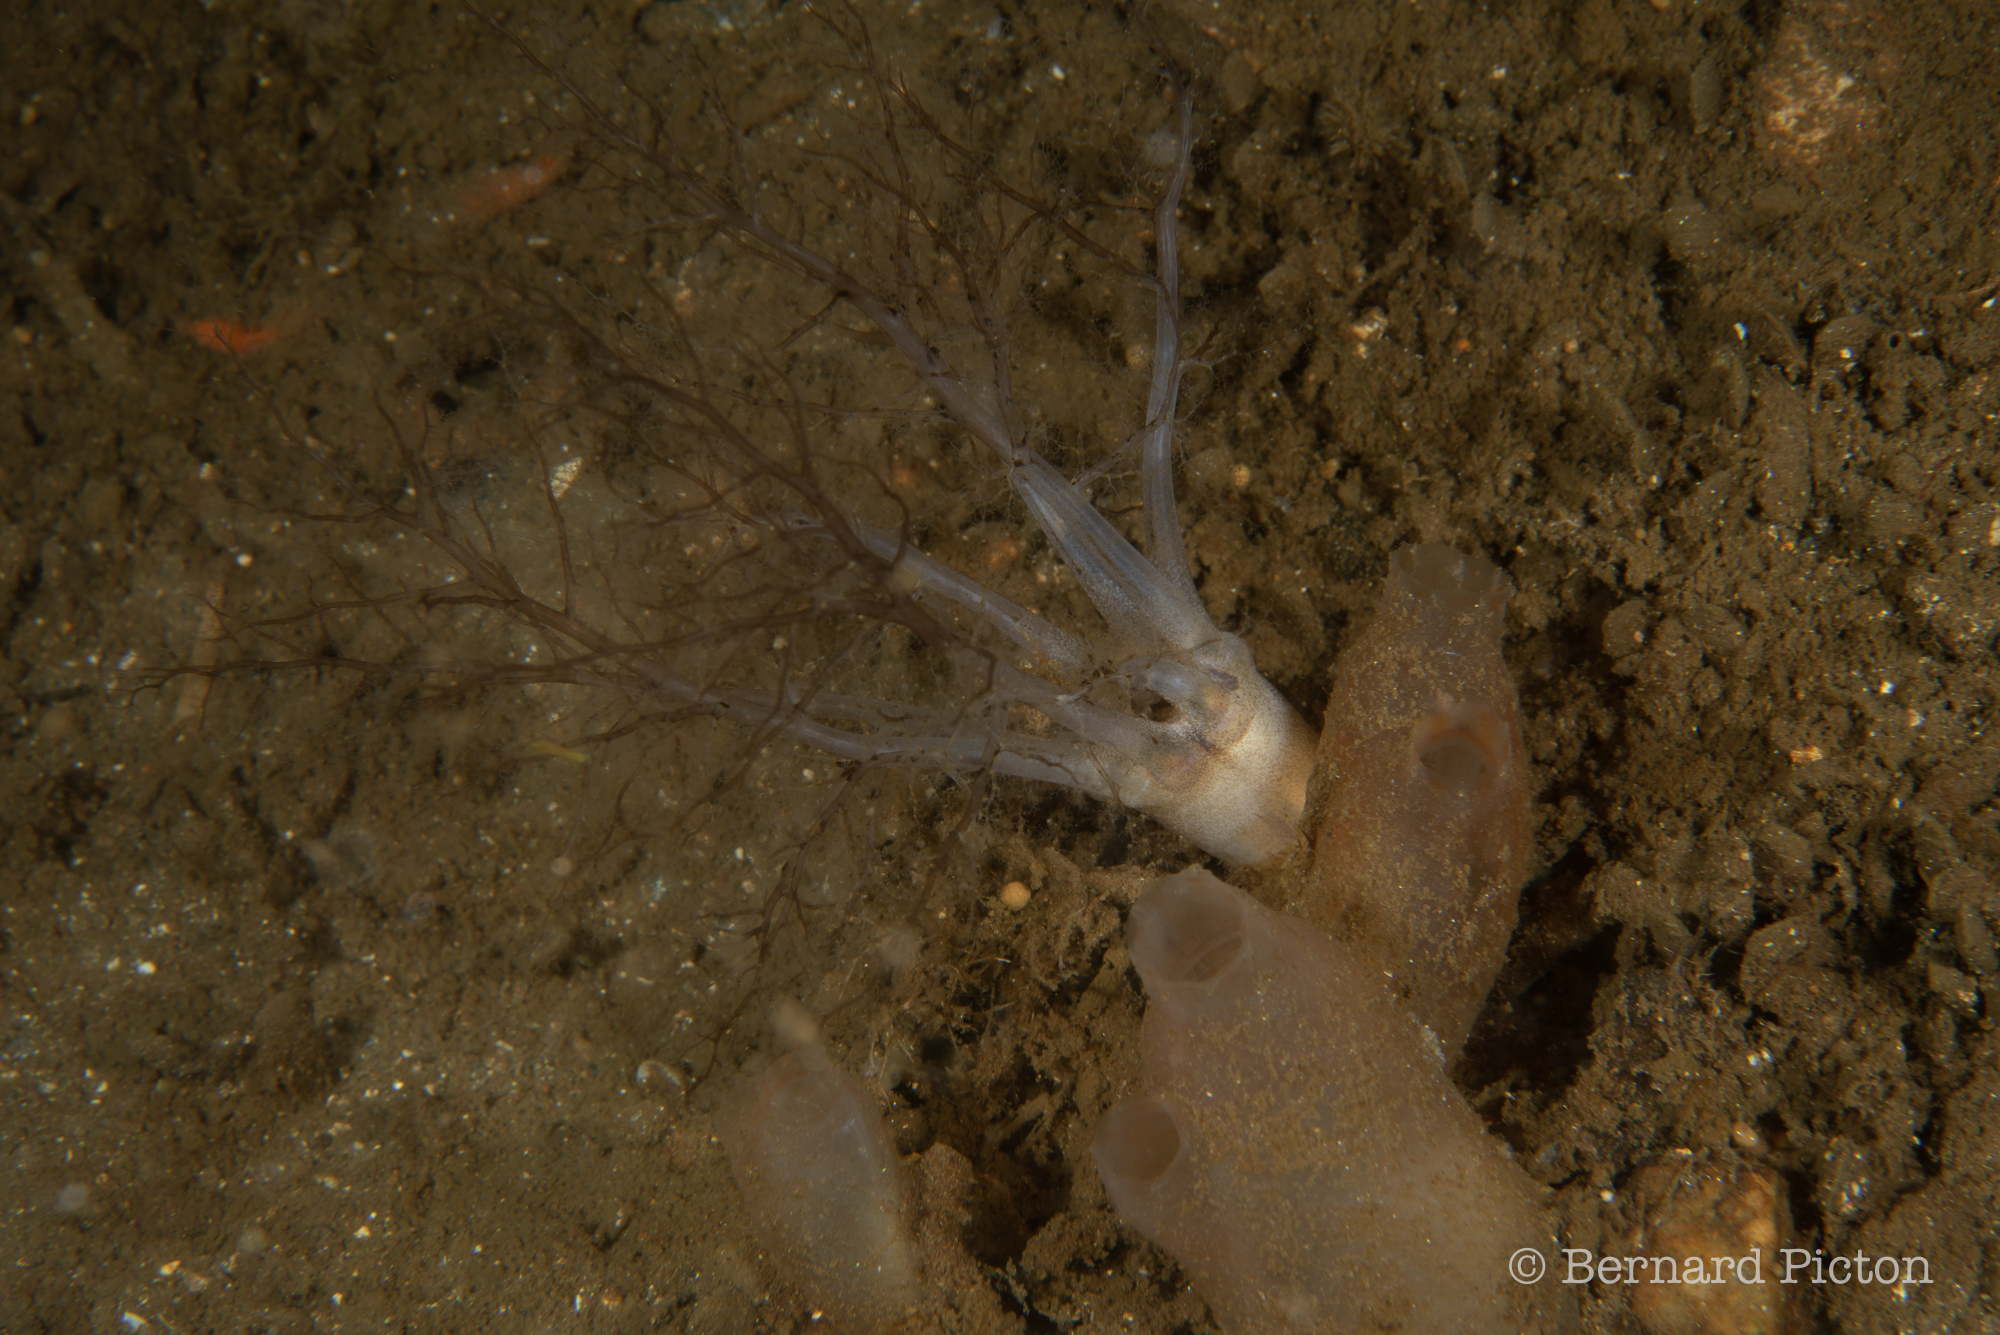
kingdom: Animalia
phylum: Echinodermata
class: Holothuroidea
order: Dendrochirotida
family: Phyllophoridae
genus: Thyone
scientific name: Thyone fusus
